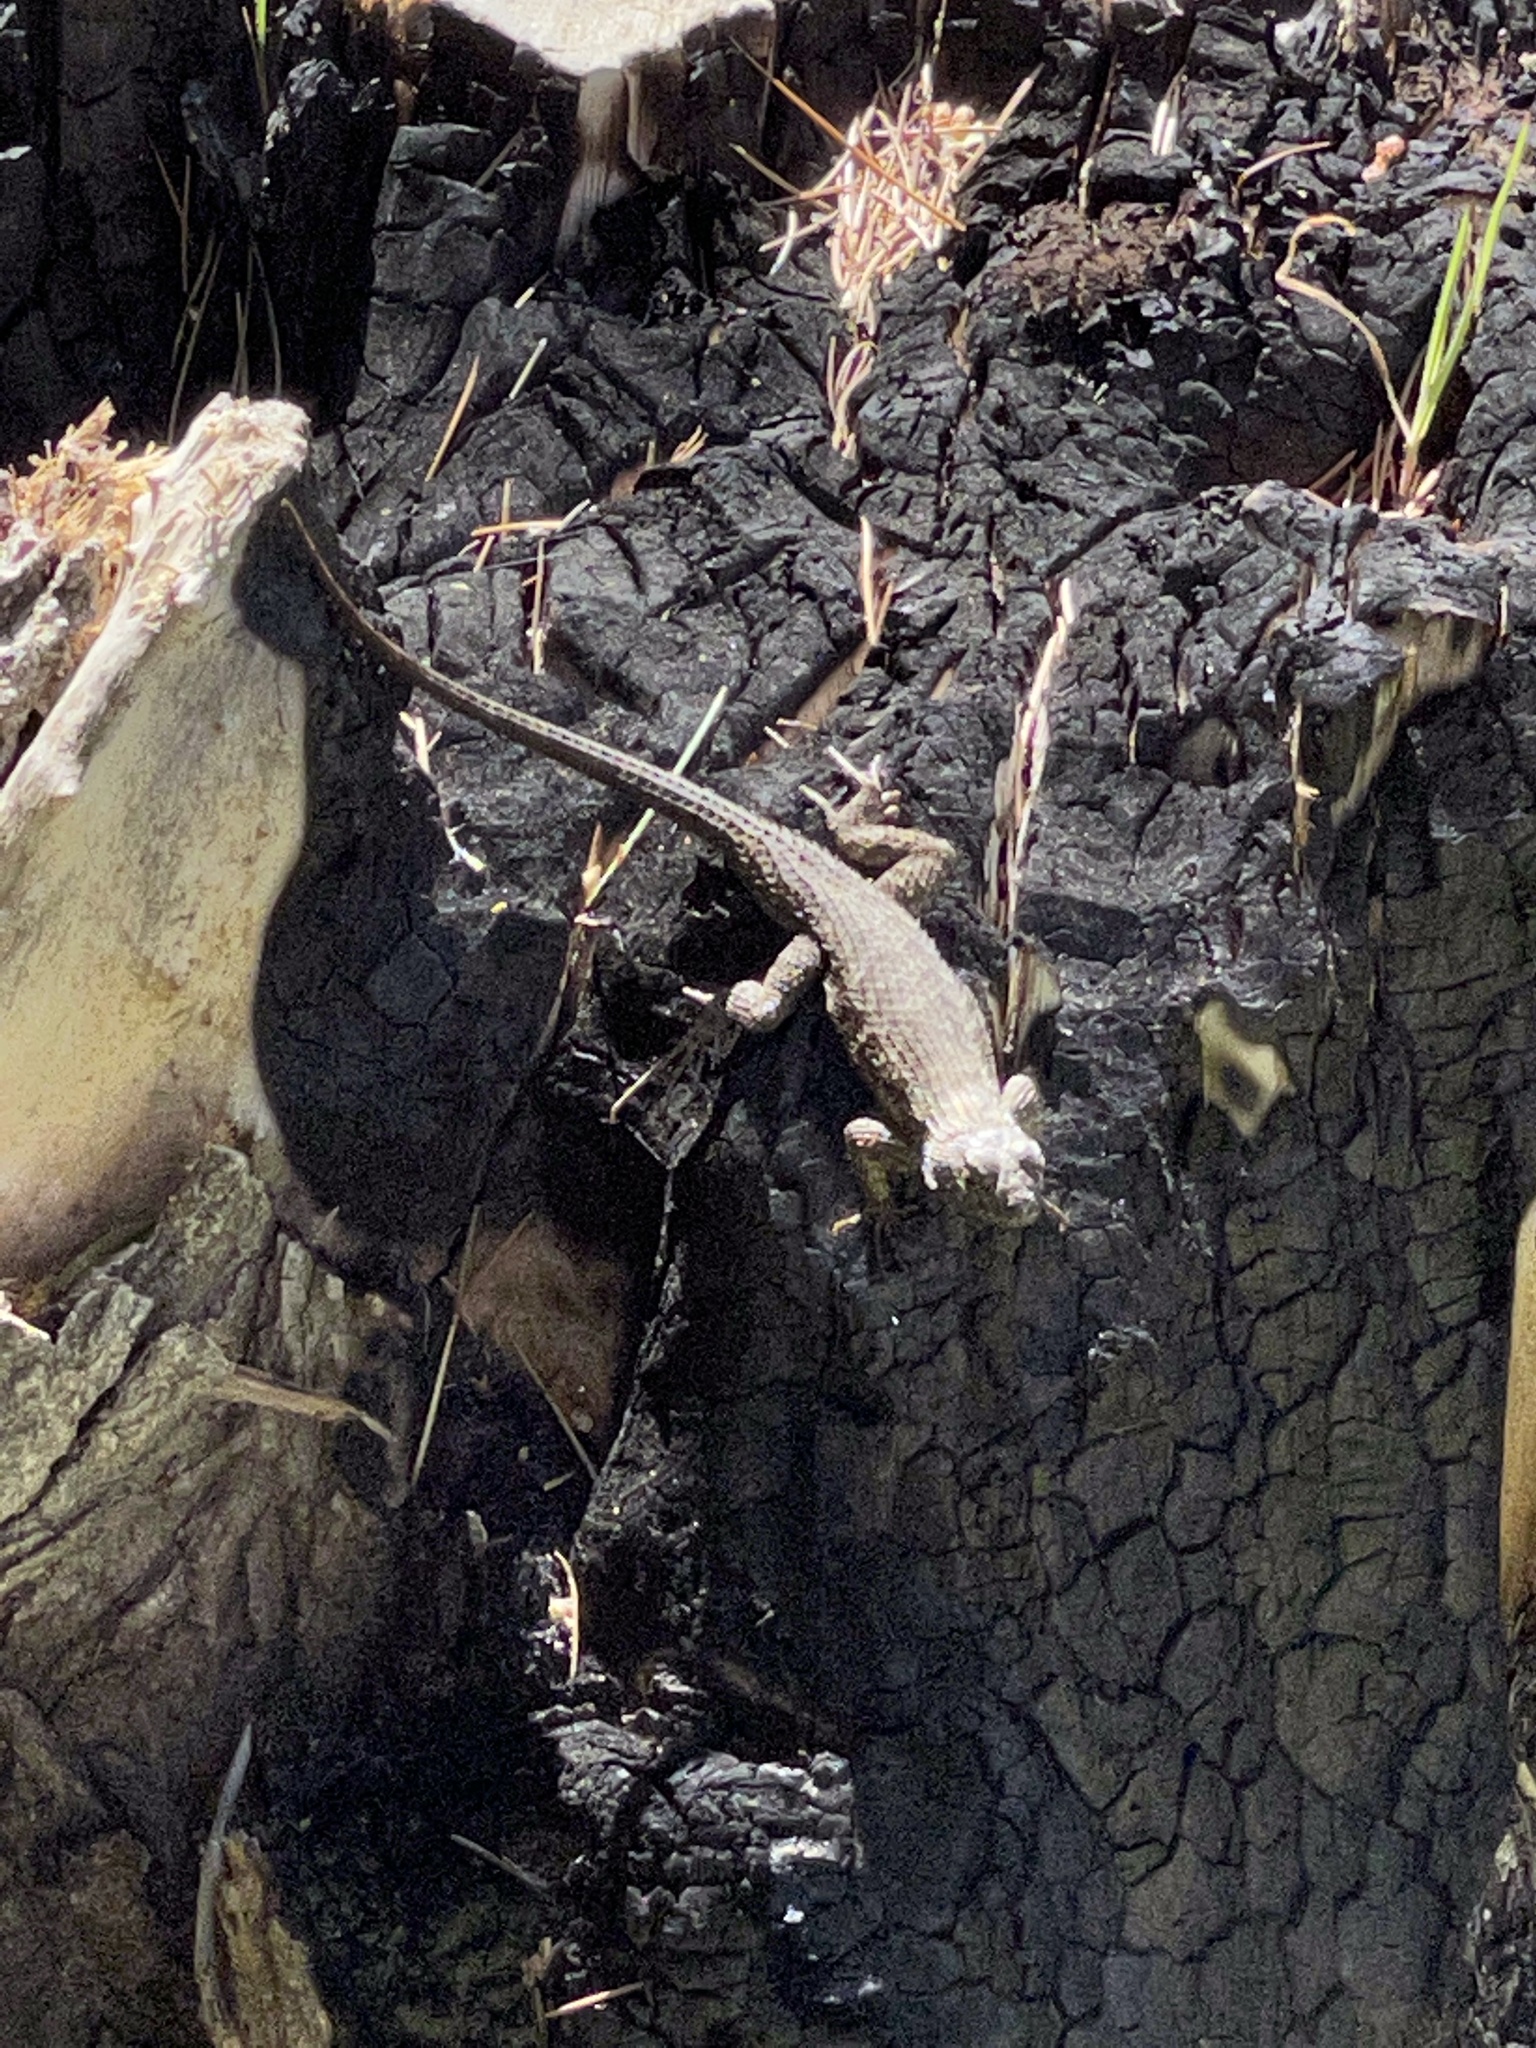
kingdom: Animalia
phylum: Chordata
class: Squamata
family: Phrynosomatidae
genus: Sceloporus
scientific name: Sceloporus occidentalis
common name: Western fence lizard
